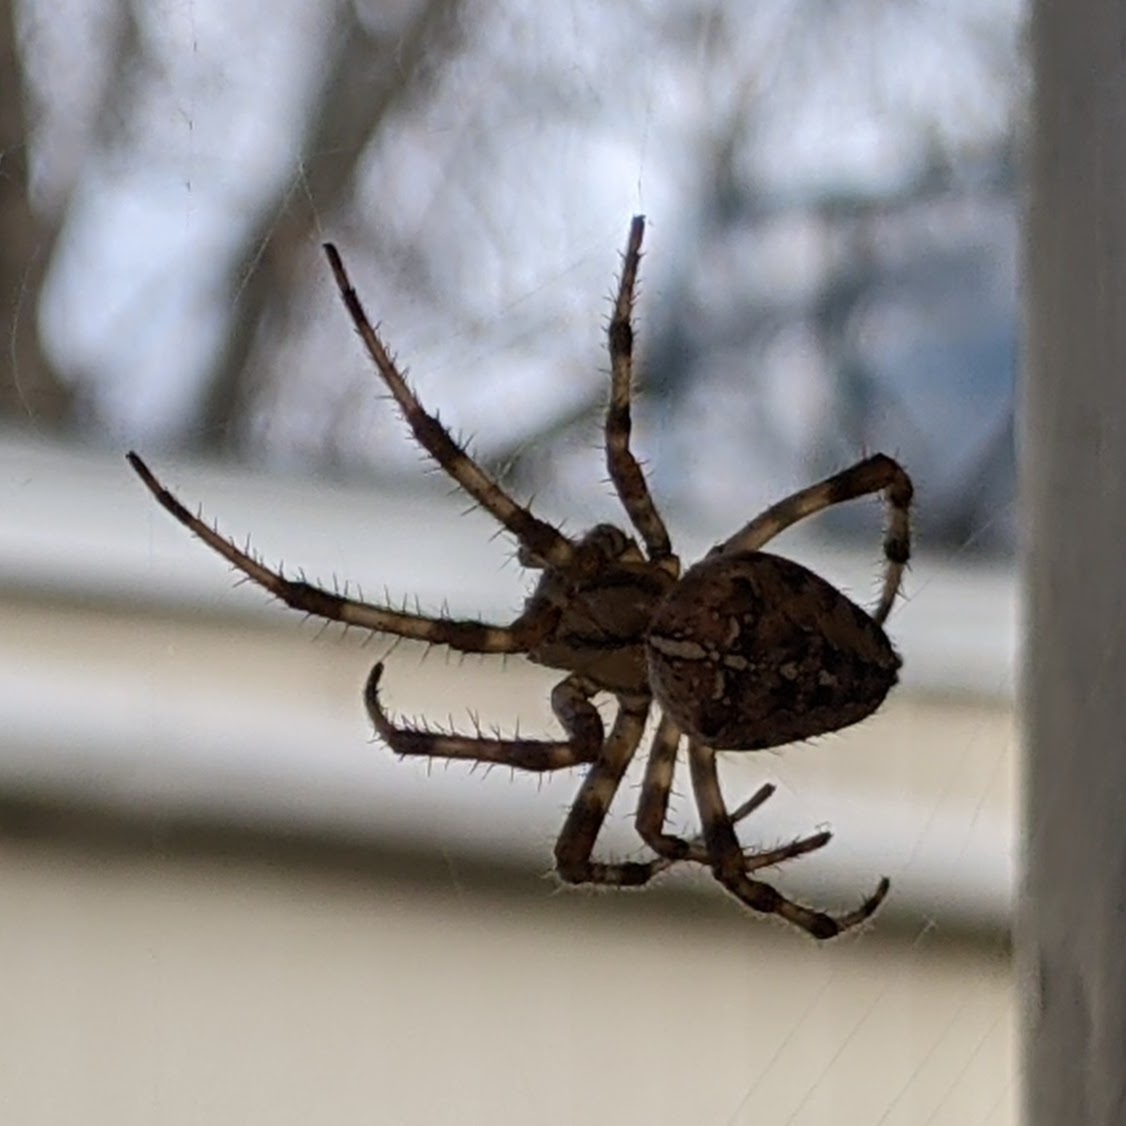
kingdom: Animalia
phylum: Arthropoda
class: Arachnida
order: Araneae
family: Araneidae
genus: Araneus
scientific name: Araneus diadematus
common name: Cross orbweaver
